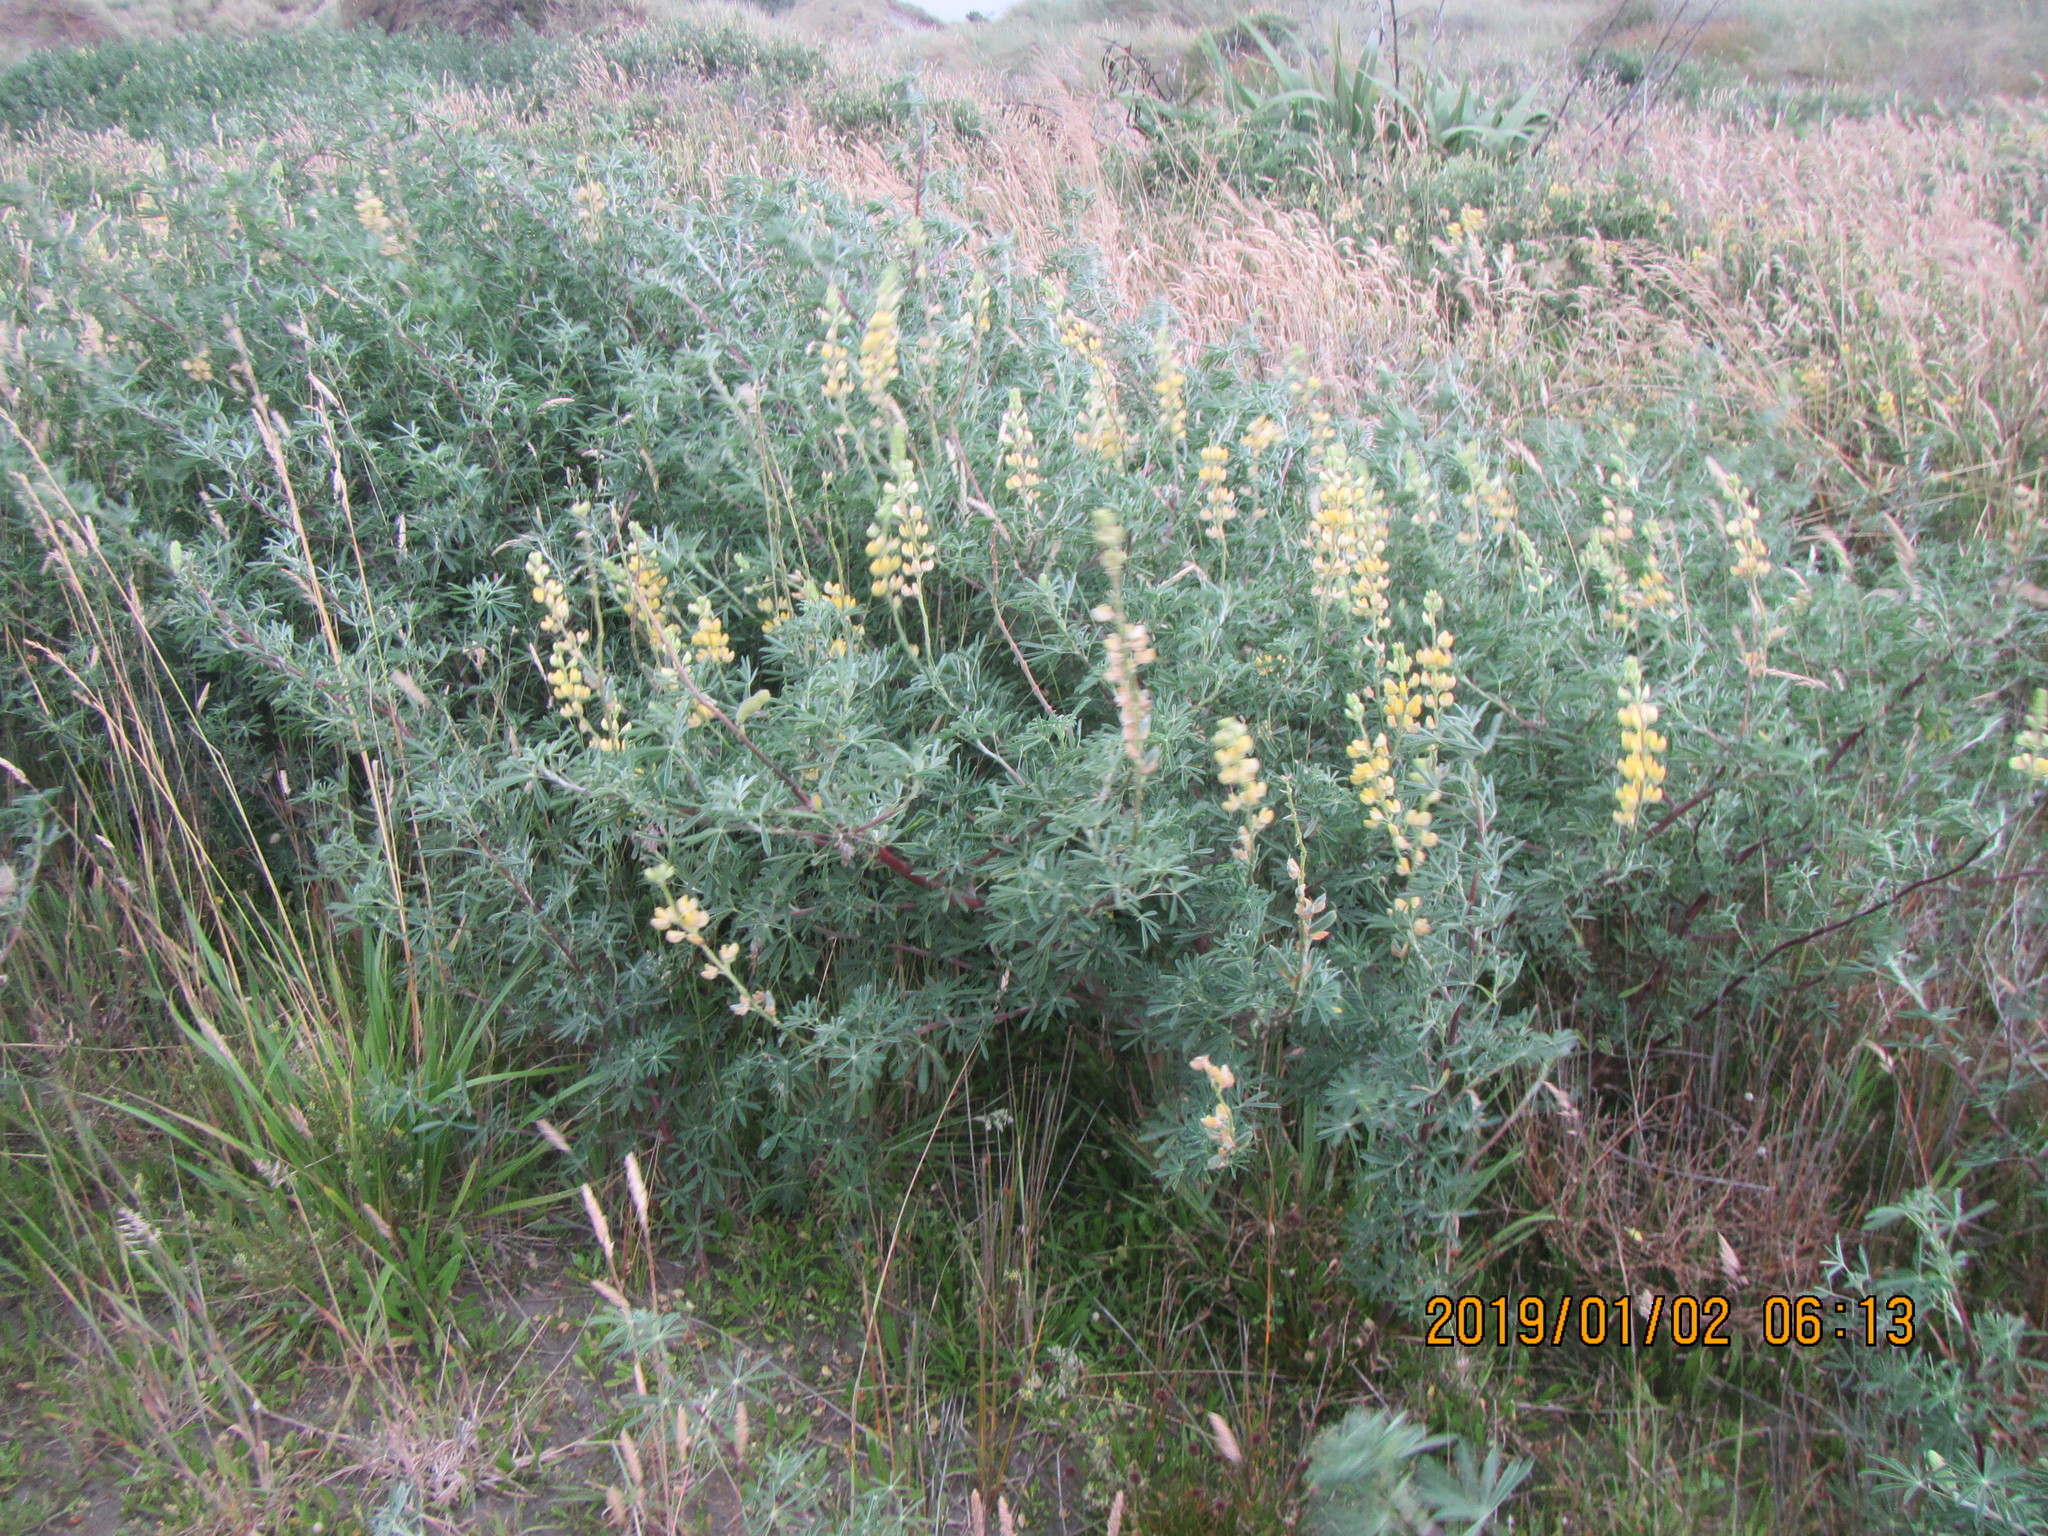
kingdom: Plantae
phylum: Tracheophyta
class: Magnoliopsida
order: Fabales
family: Fabaceae
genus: Lupinus
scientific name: Lupinus arboreus
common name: Yellow bush lupine
